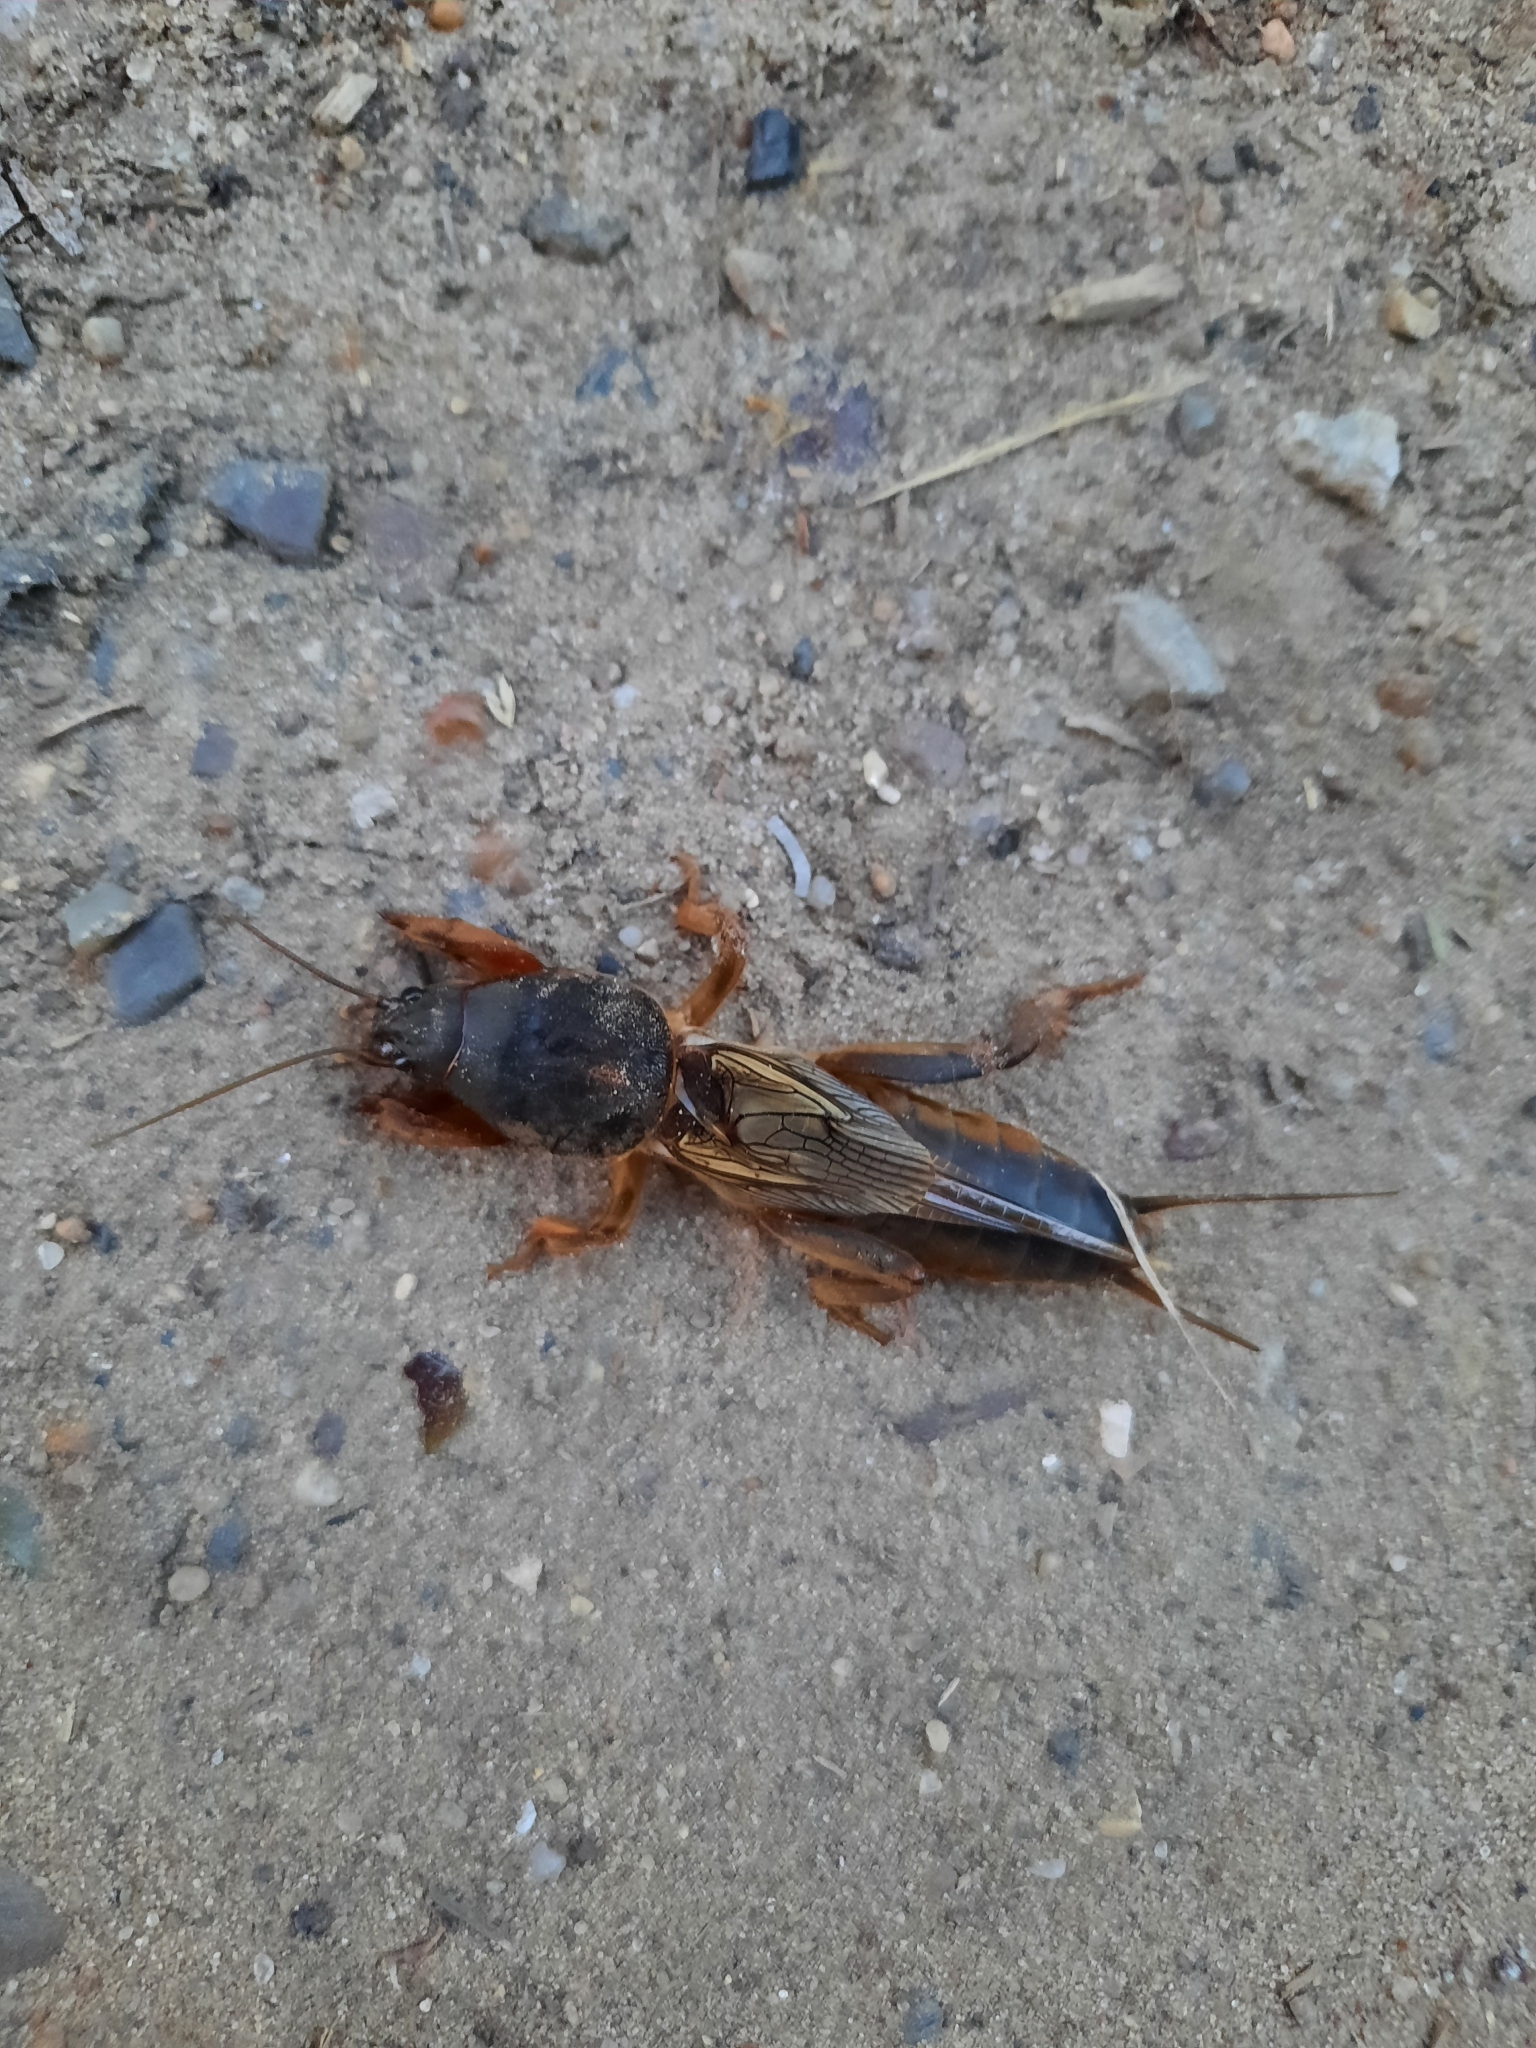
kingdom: Animalia
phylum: Arthropoda
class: Insecta
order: Orthoptera
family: Gryllotalpidae
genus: Gryllotalpa
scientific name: Gryllotalpa gryllotalpa
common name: European mole cricket
